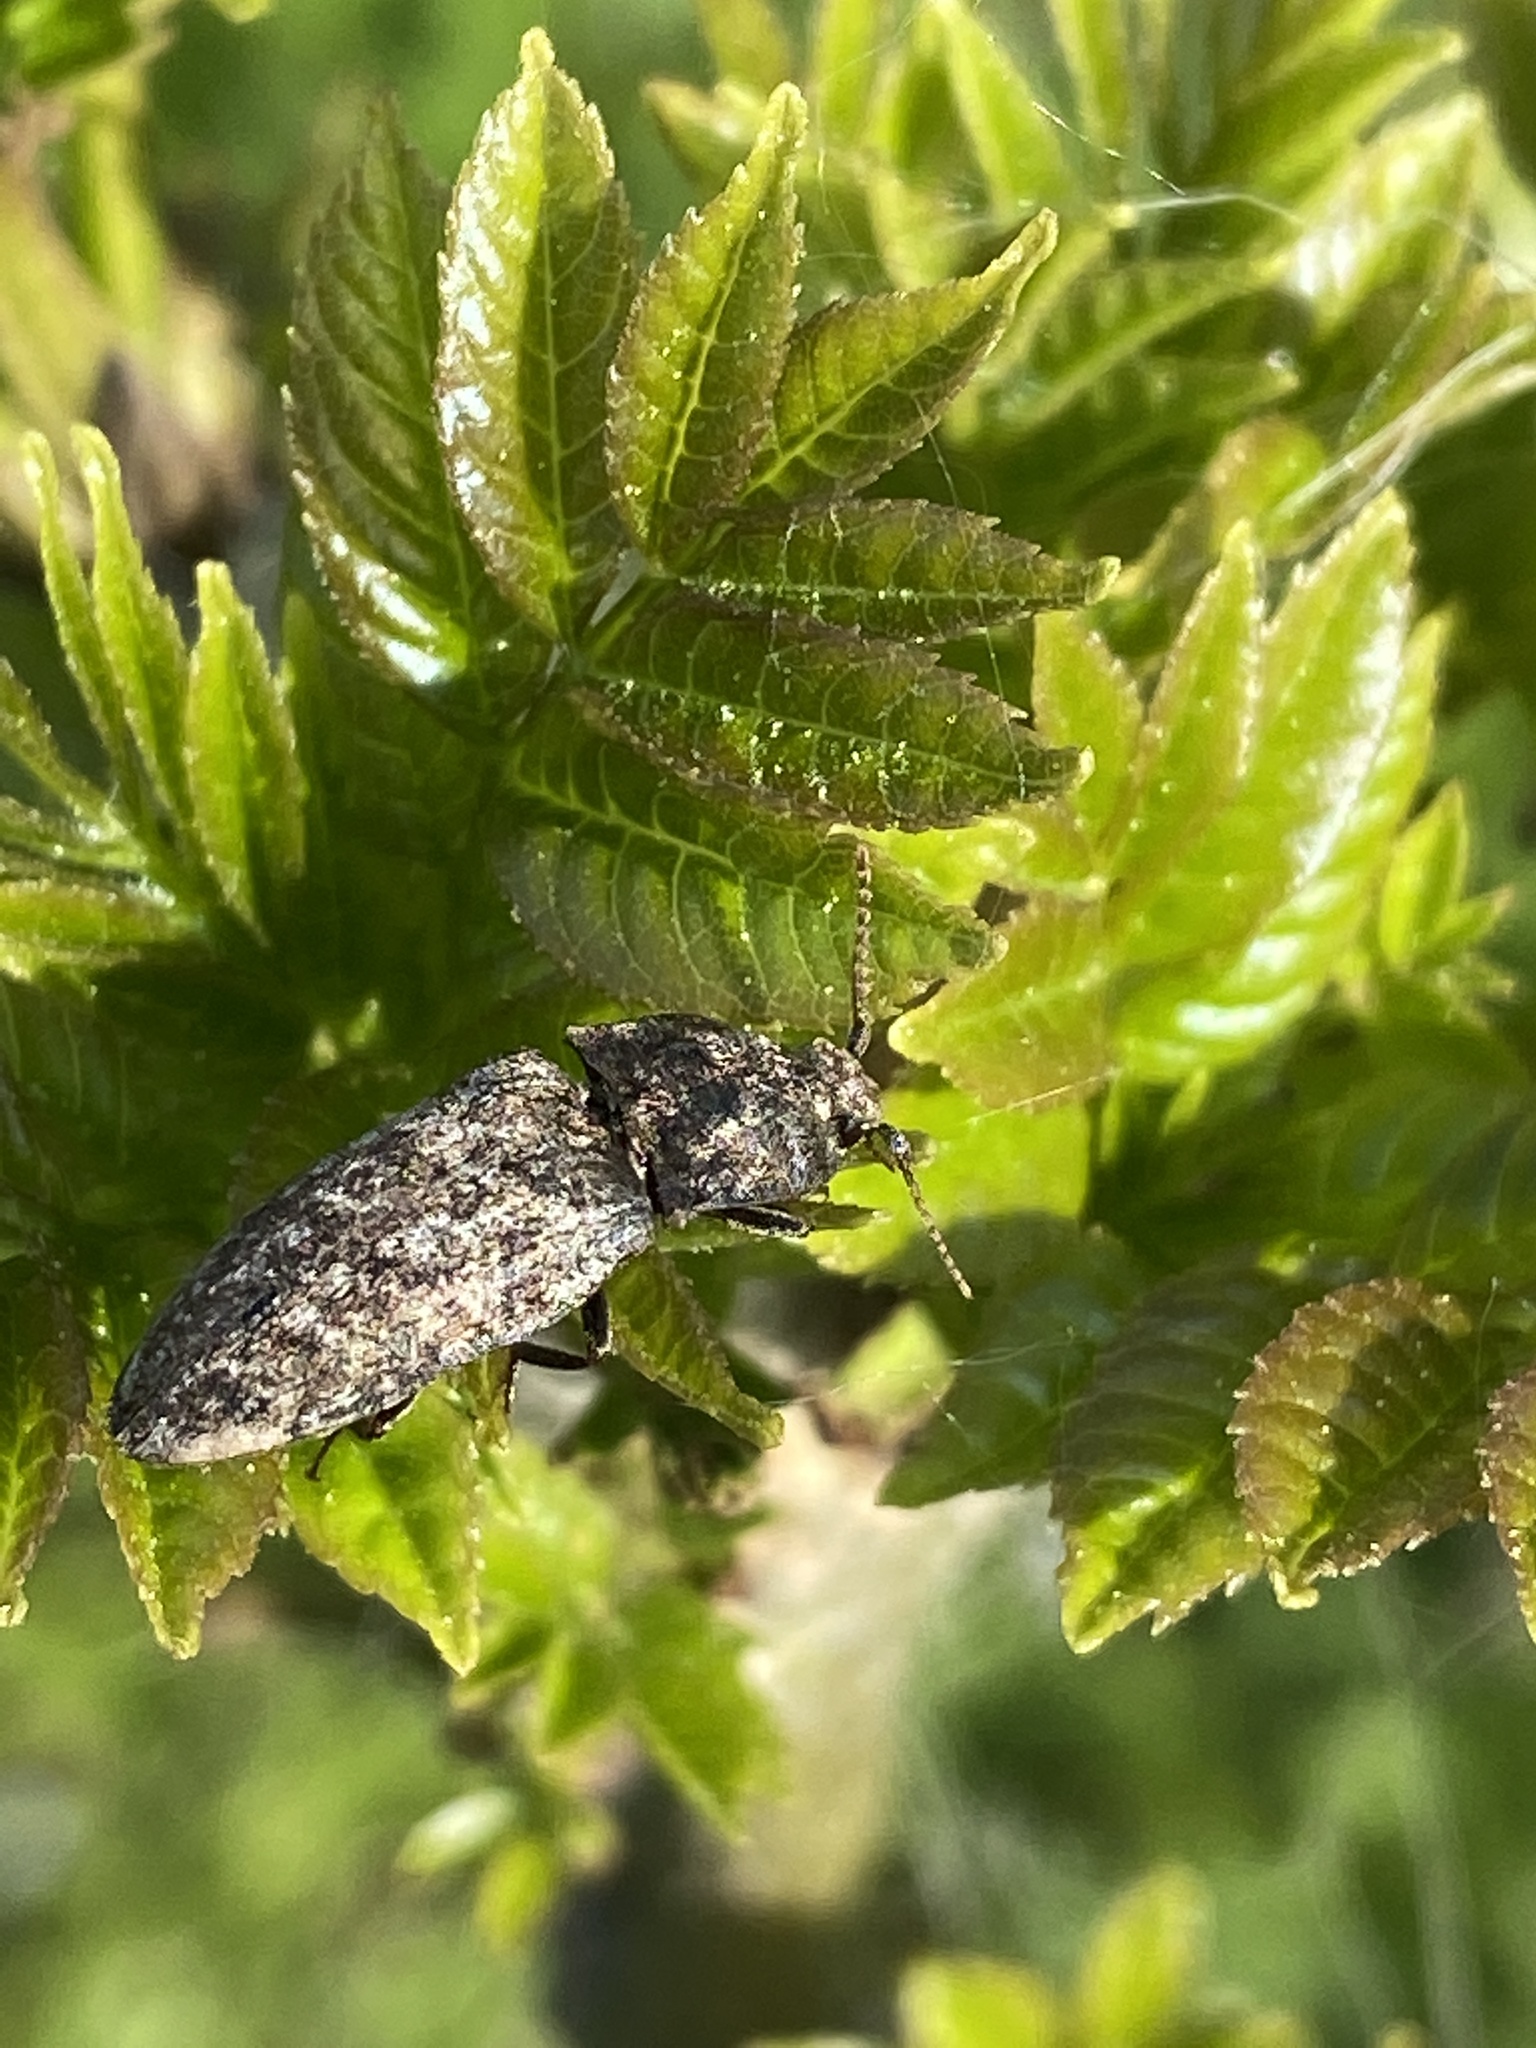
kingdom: Animalia
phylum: Arthropoda
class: Insecta
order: Coleoptera
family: Elateridae
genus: Agrypnus
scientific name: Agrypnus murinus
